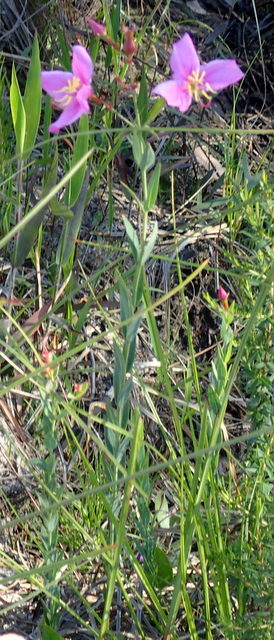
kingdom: Plantae
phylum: Tracheophyta
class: Magnoliopsida
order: Myrtales
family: Melastomataceae
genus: Rhexia
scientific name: Rhexia alifanus
